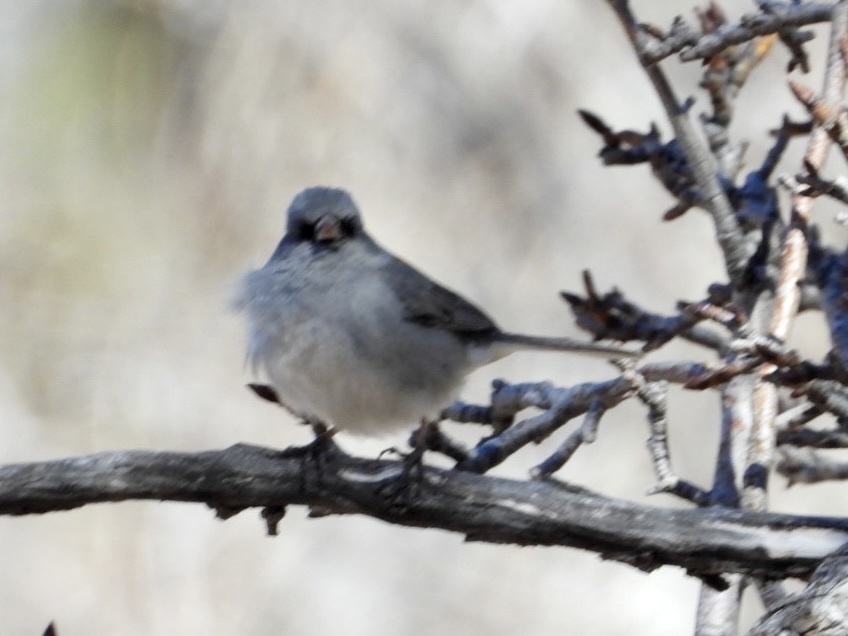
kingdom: Animalia
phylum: Chordata
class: Aves
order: Passeriformes
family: Passerellidae
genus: Junco
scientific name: Junco hyemalis
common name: Dark-eyed junco
